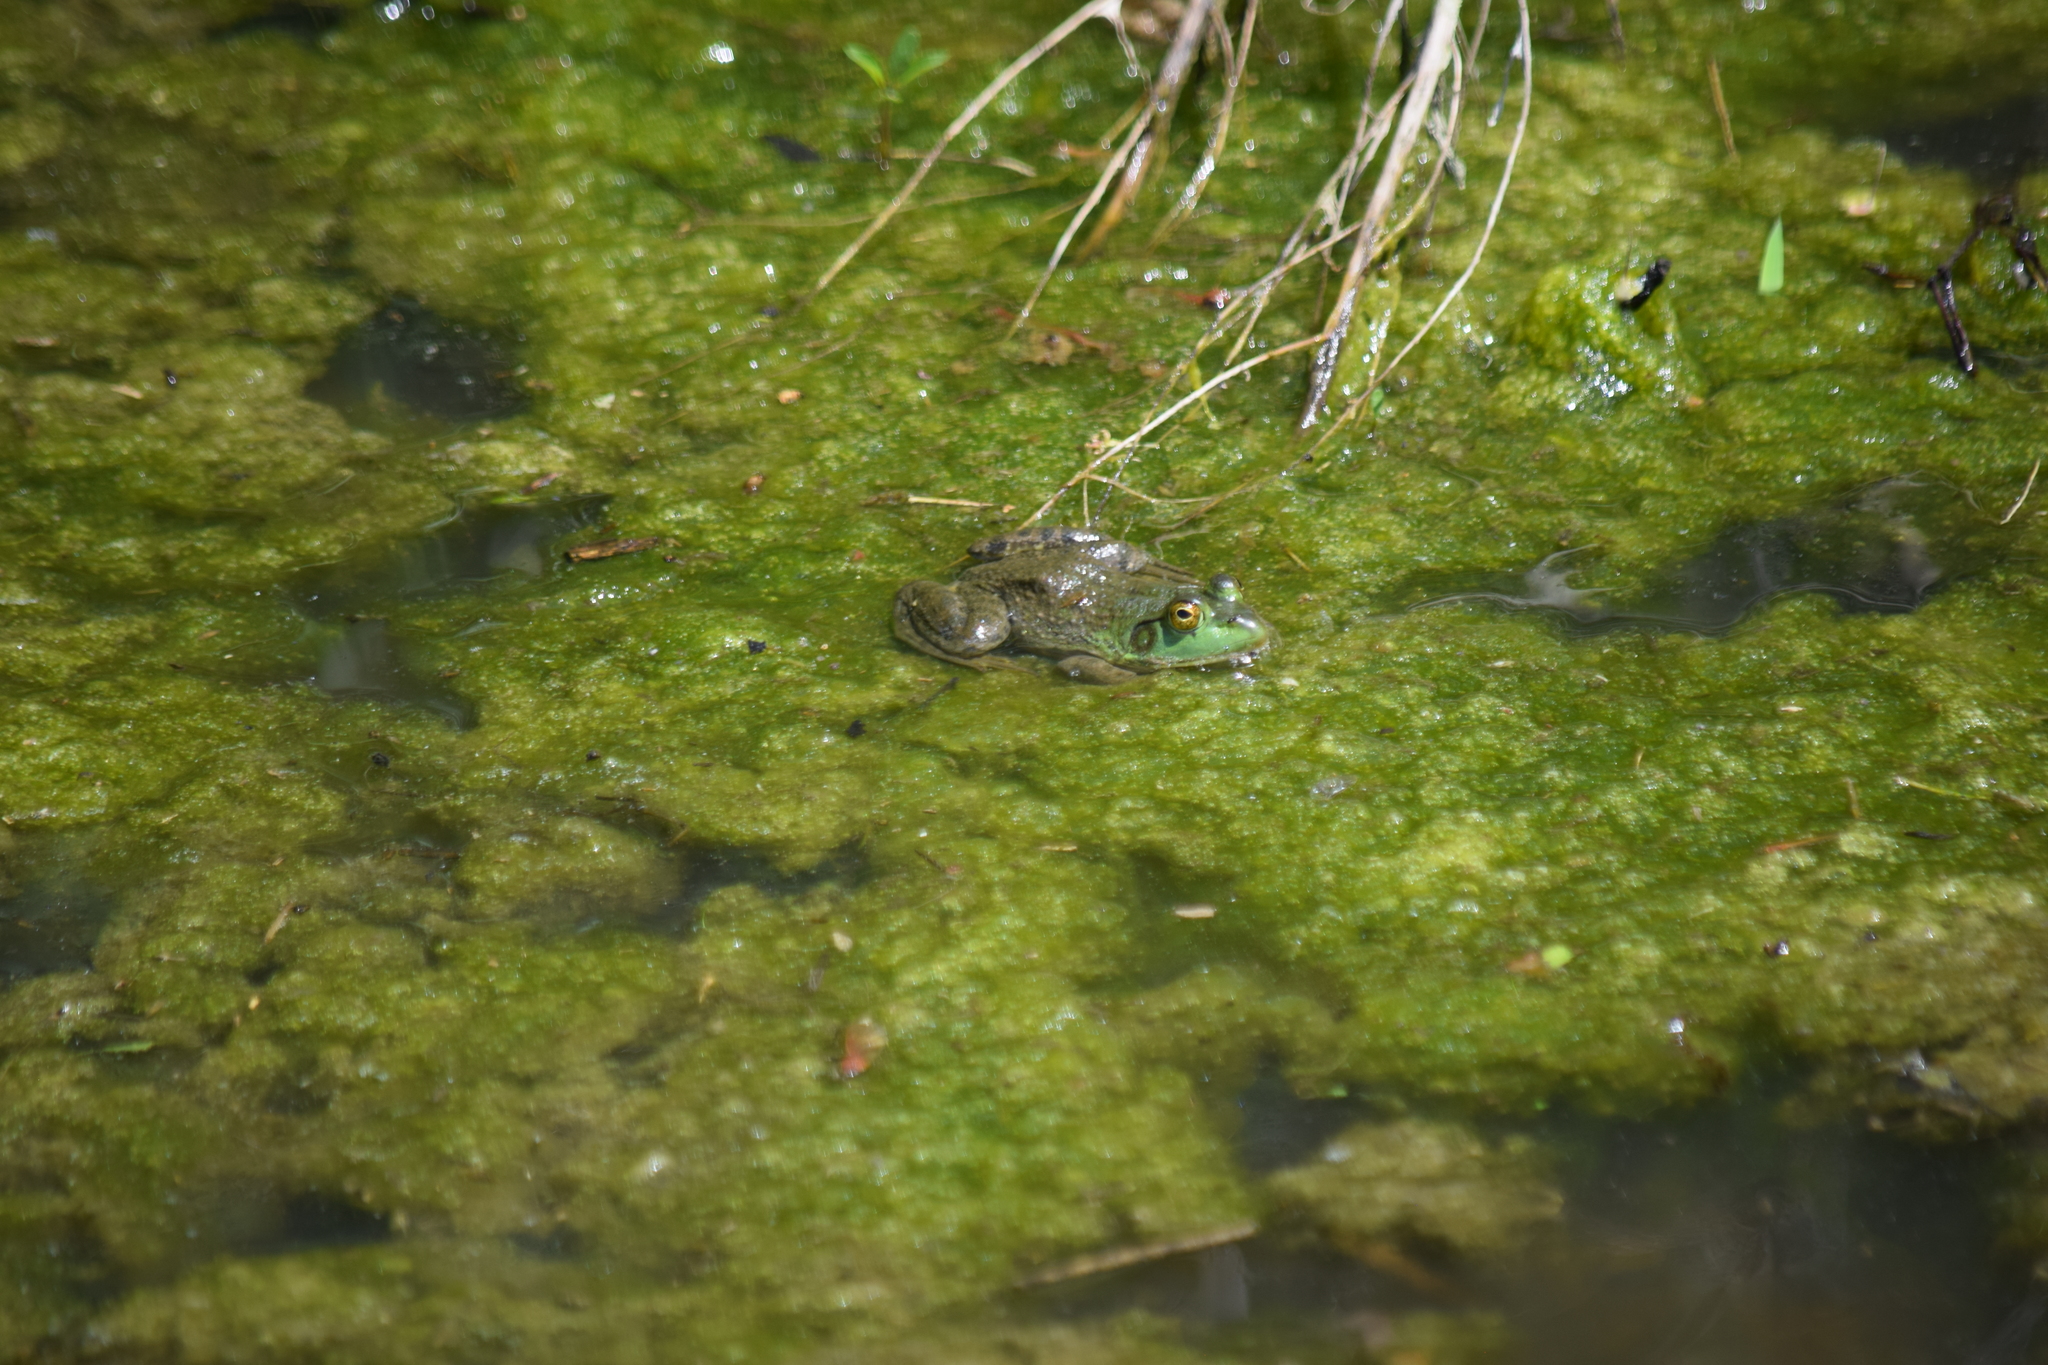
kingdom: Animalia
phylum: Chordata
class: Amphibia
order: Anura
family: Ranidae
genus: Lithobates
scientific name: Lithobates catesbeianus
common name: American bullfrog
